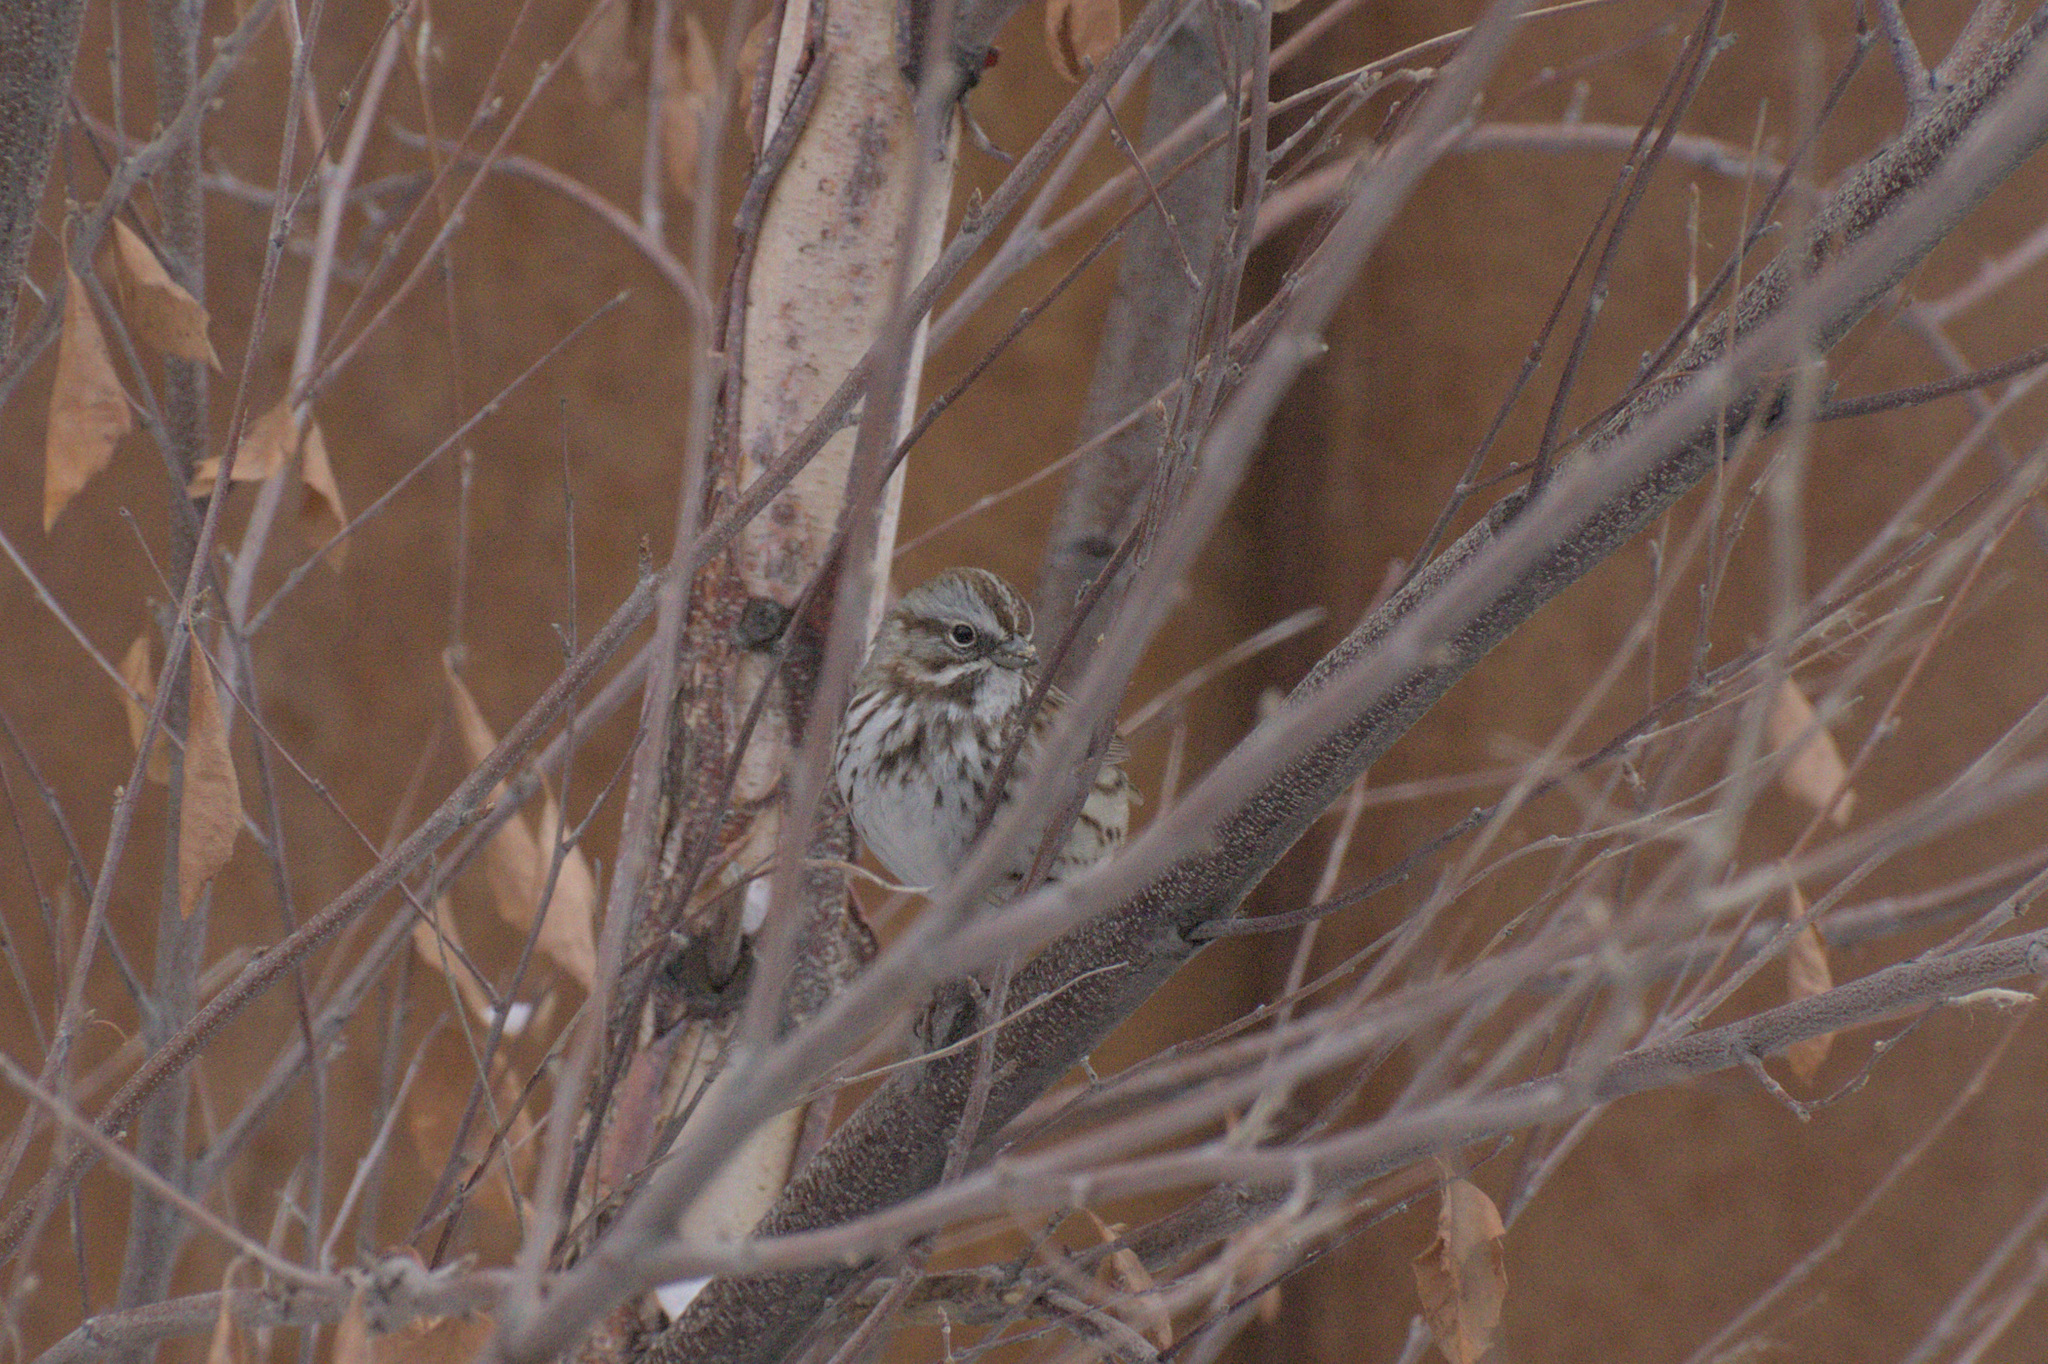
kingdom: Animalia
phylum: Chordata
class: Aves
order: Passeriformes
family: Passerellidae
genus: Melospiza
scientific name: Melospiza melodia
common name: Song sparrow
